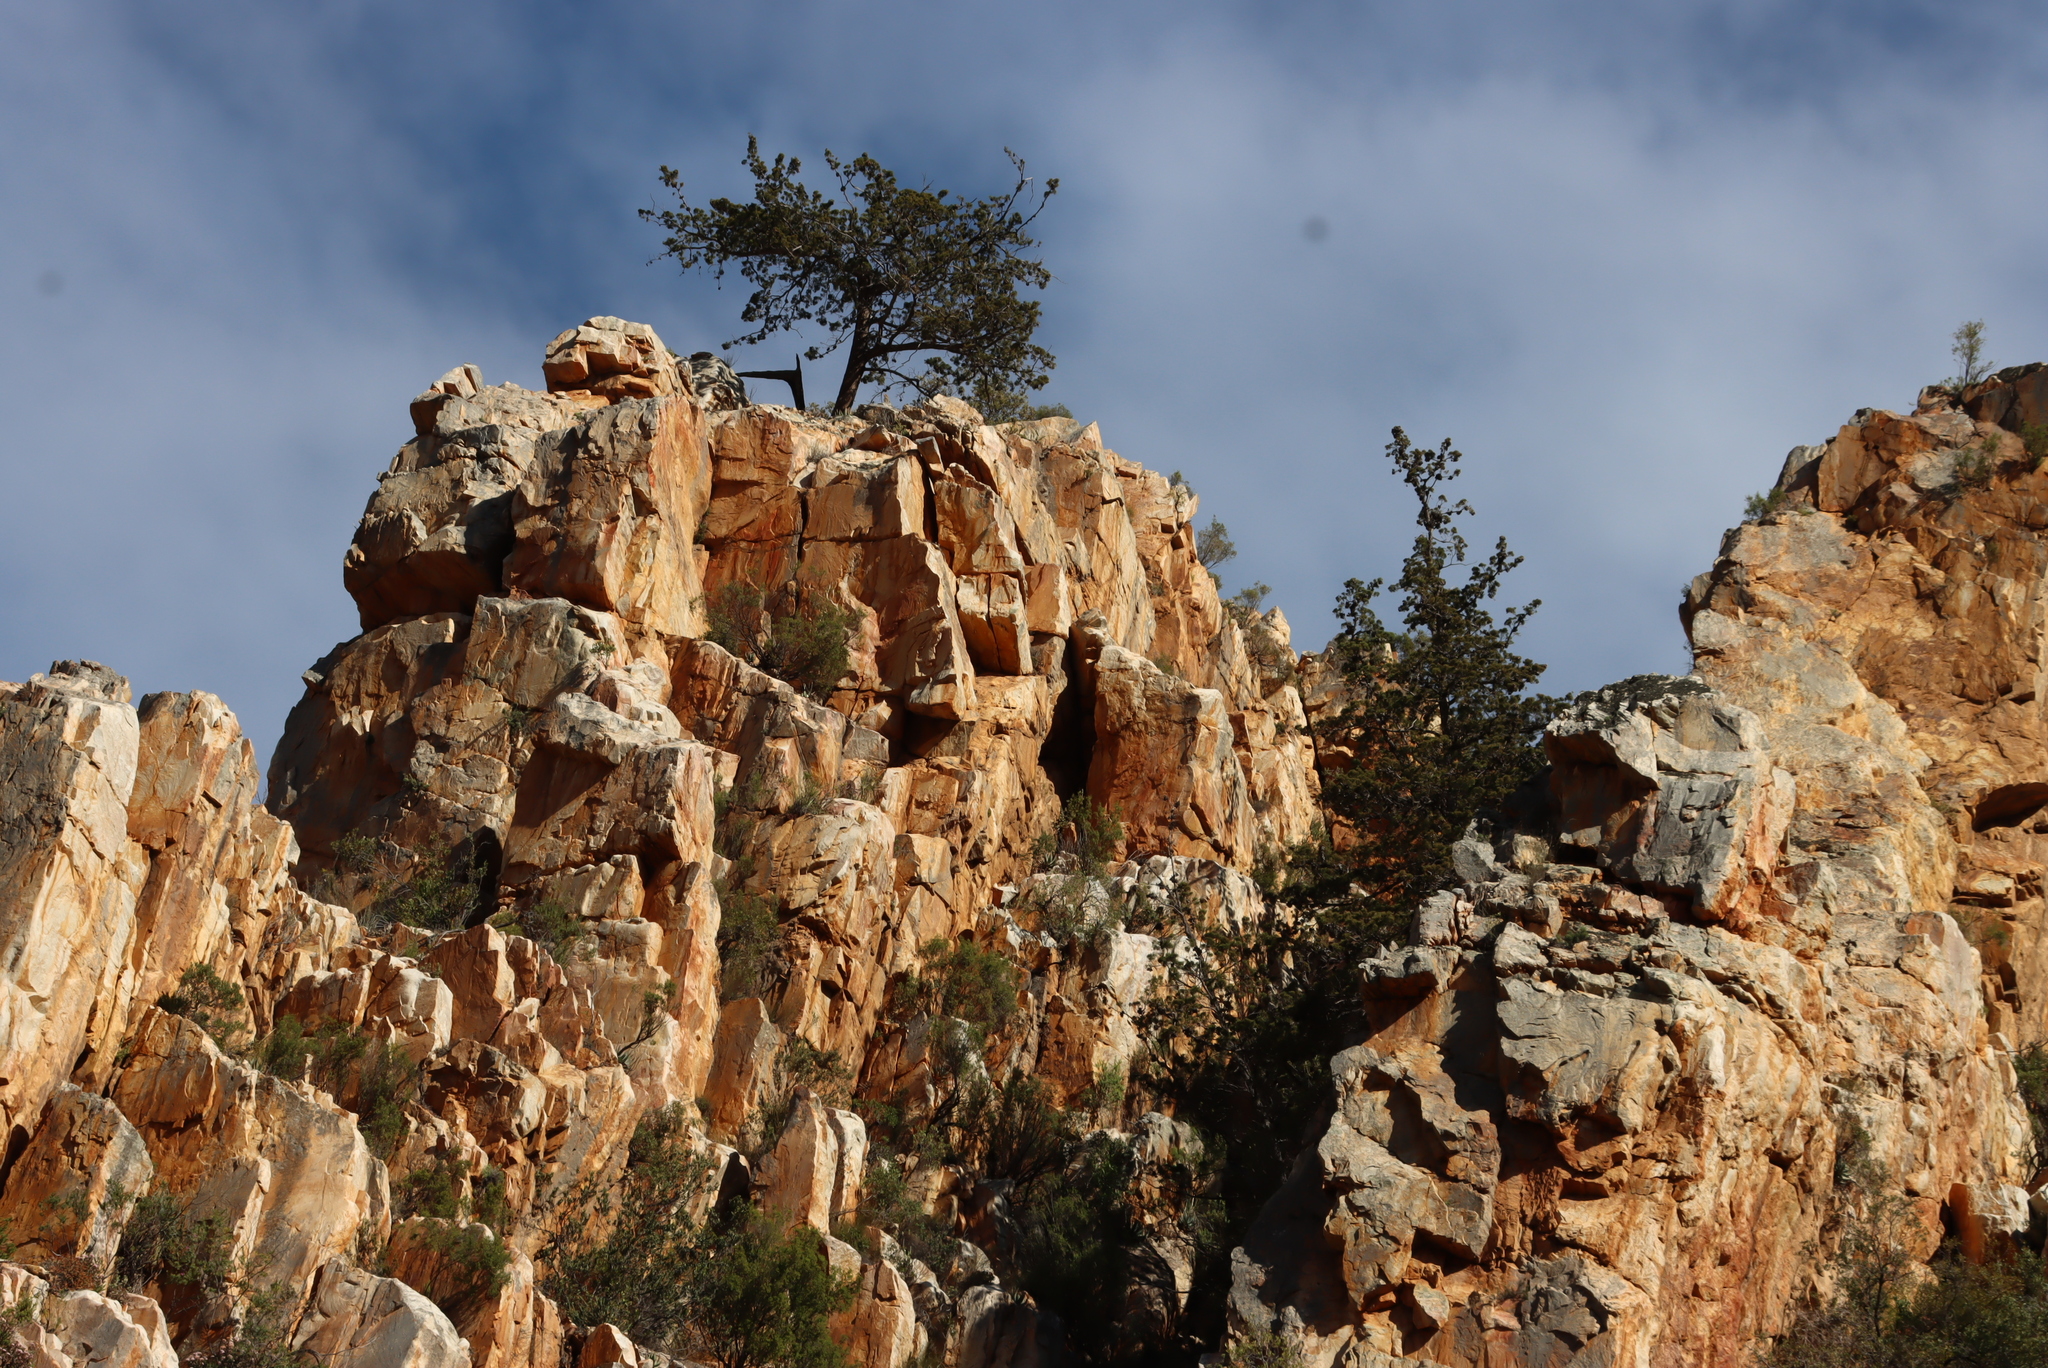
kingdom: Plantae
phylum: Tracheophyta
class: Pinopsida
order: Pinales
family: Cupressaceae
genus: Widdringtonia
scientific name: Widdringtonia schwarzii
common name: Baviaans cedar
